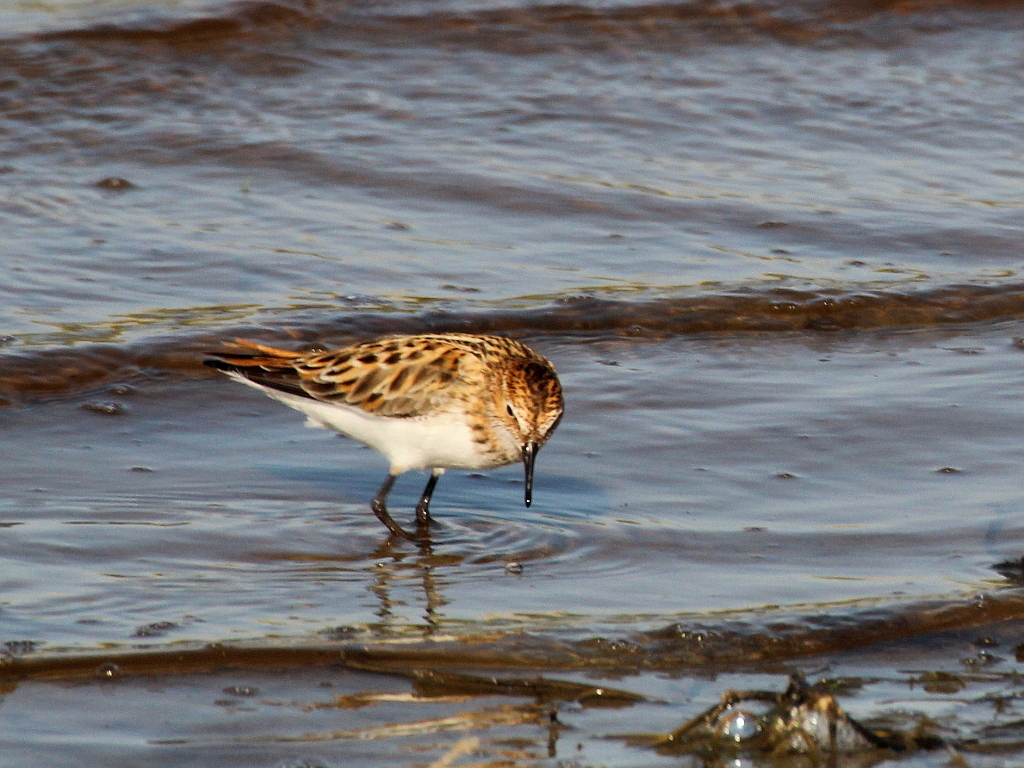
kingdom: Animalia
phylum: Chordata
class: Aves
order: Charadriiformes
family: Scolopacidae
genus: Calidris
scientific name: Calidris minuta
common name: Little stint
